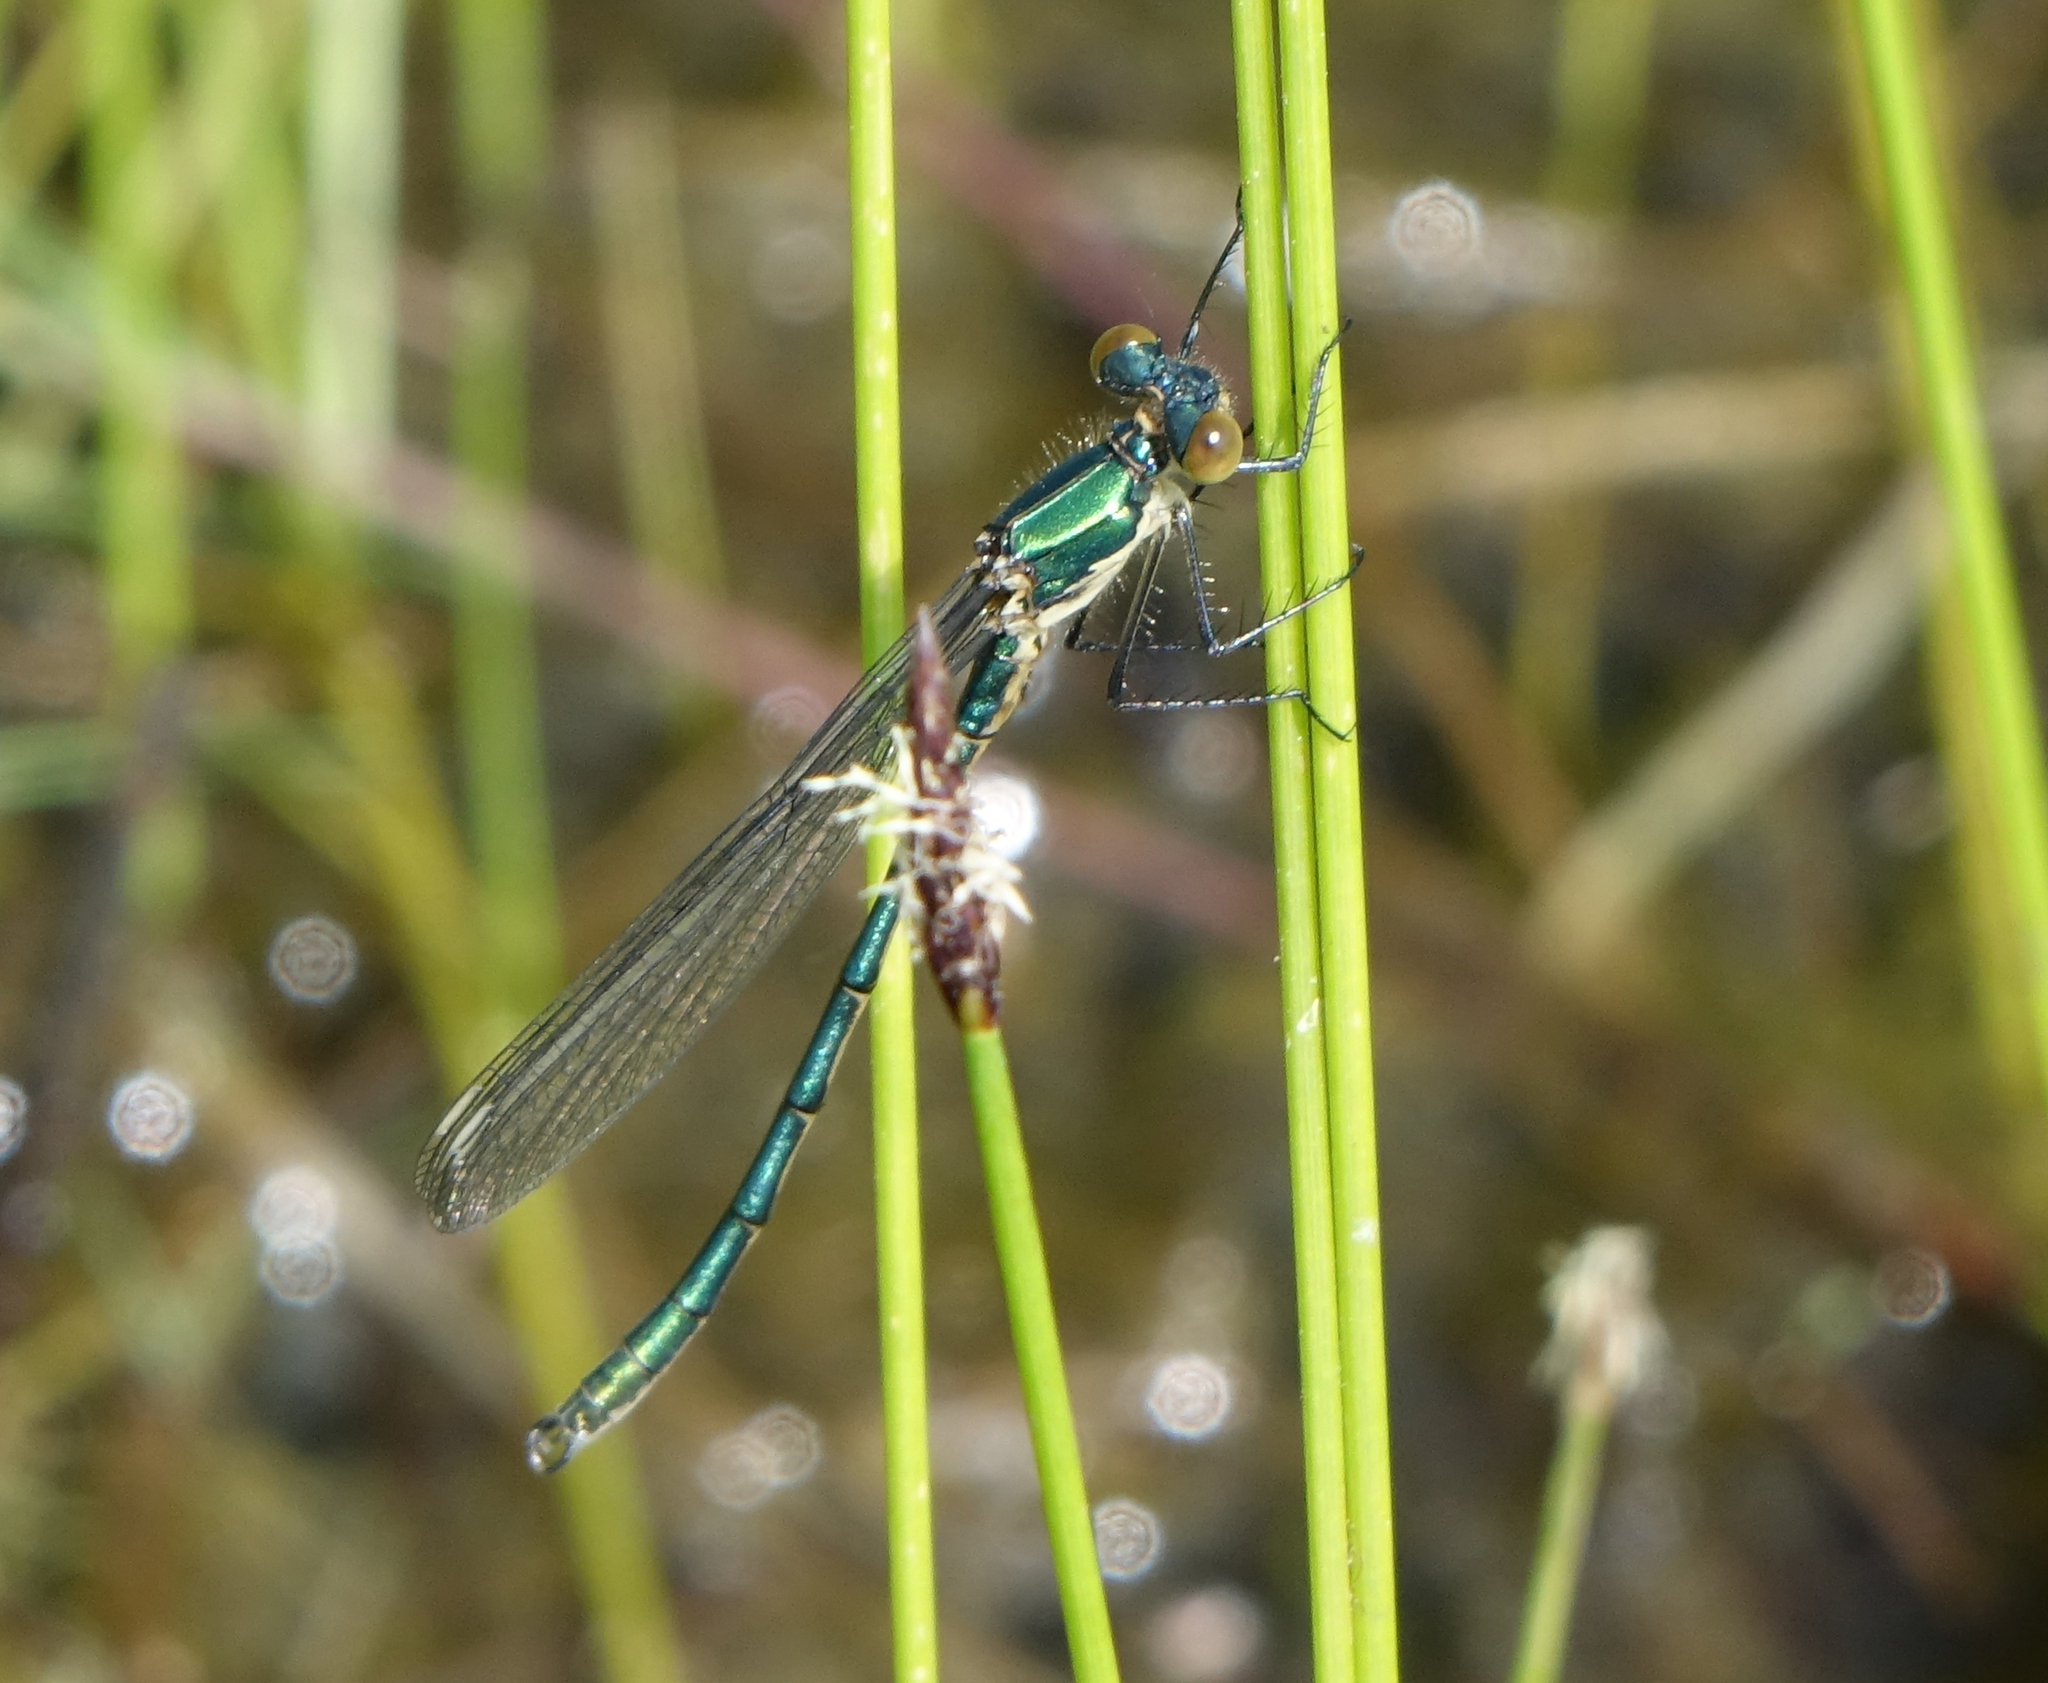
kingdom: Animalia
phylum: Arthropoda
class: Insecta
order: Odonata
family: Lestidae
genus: Lestes
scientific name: Lestes dryas
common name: Scarce emerald damselfly
